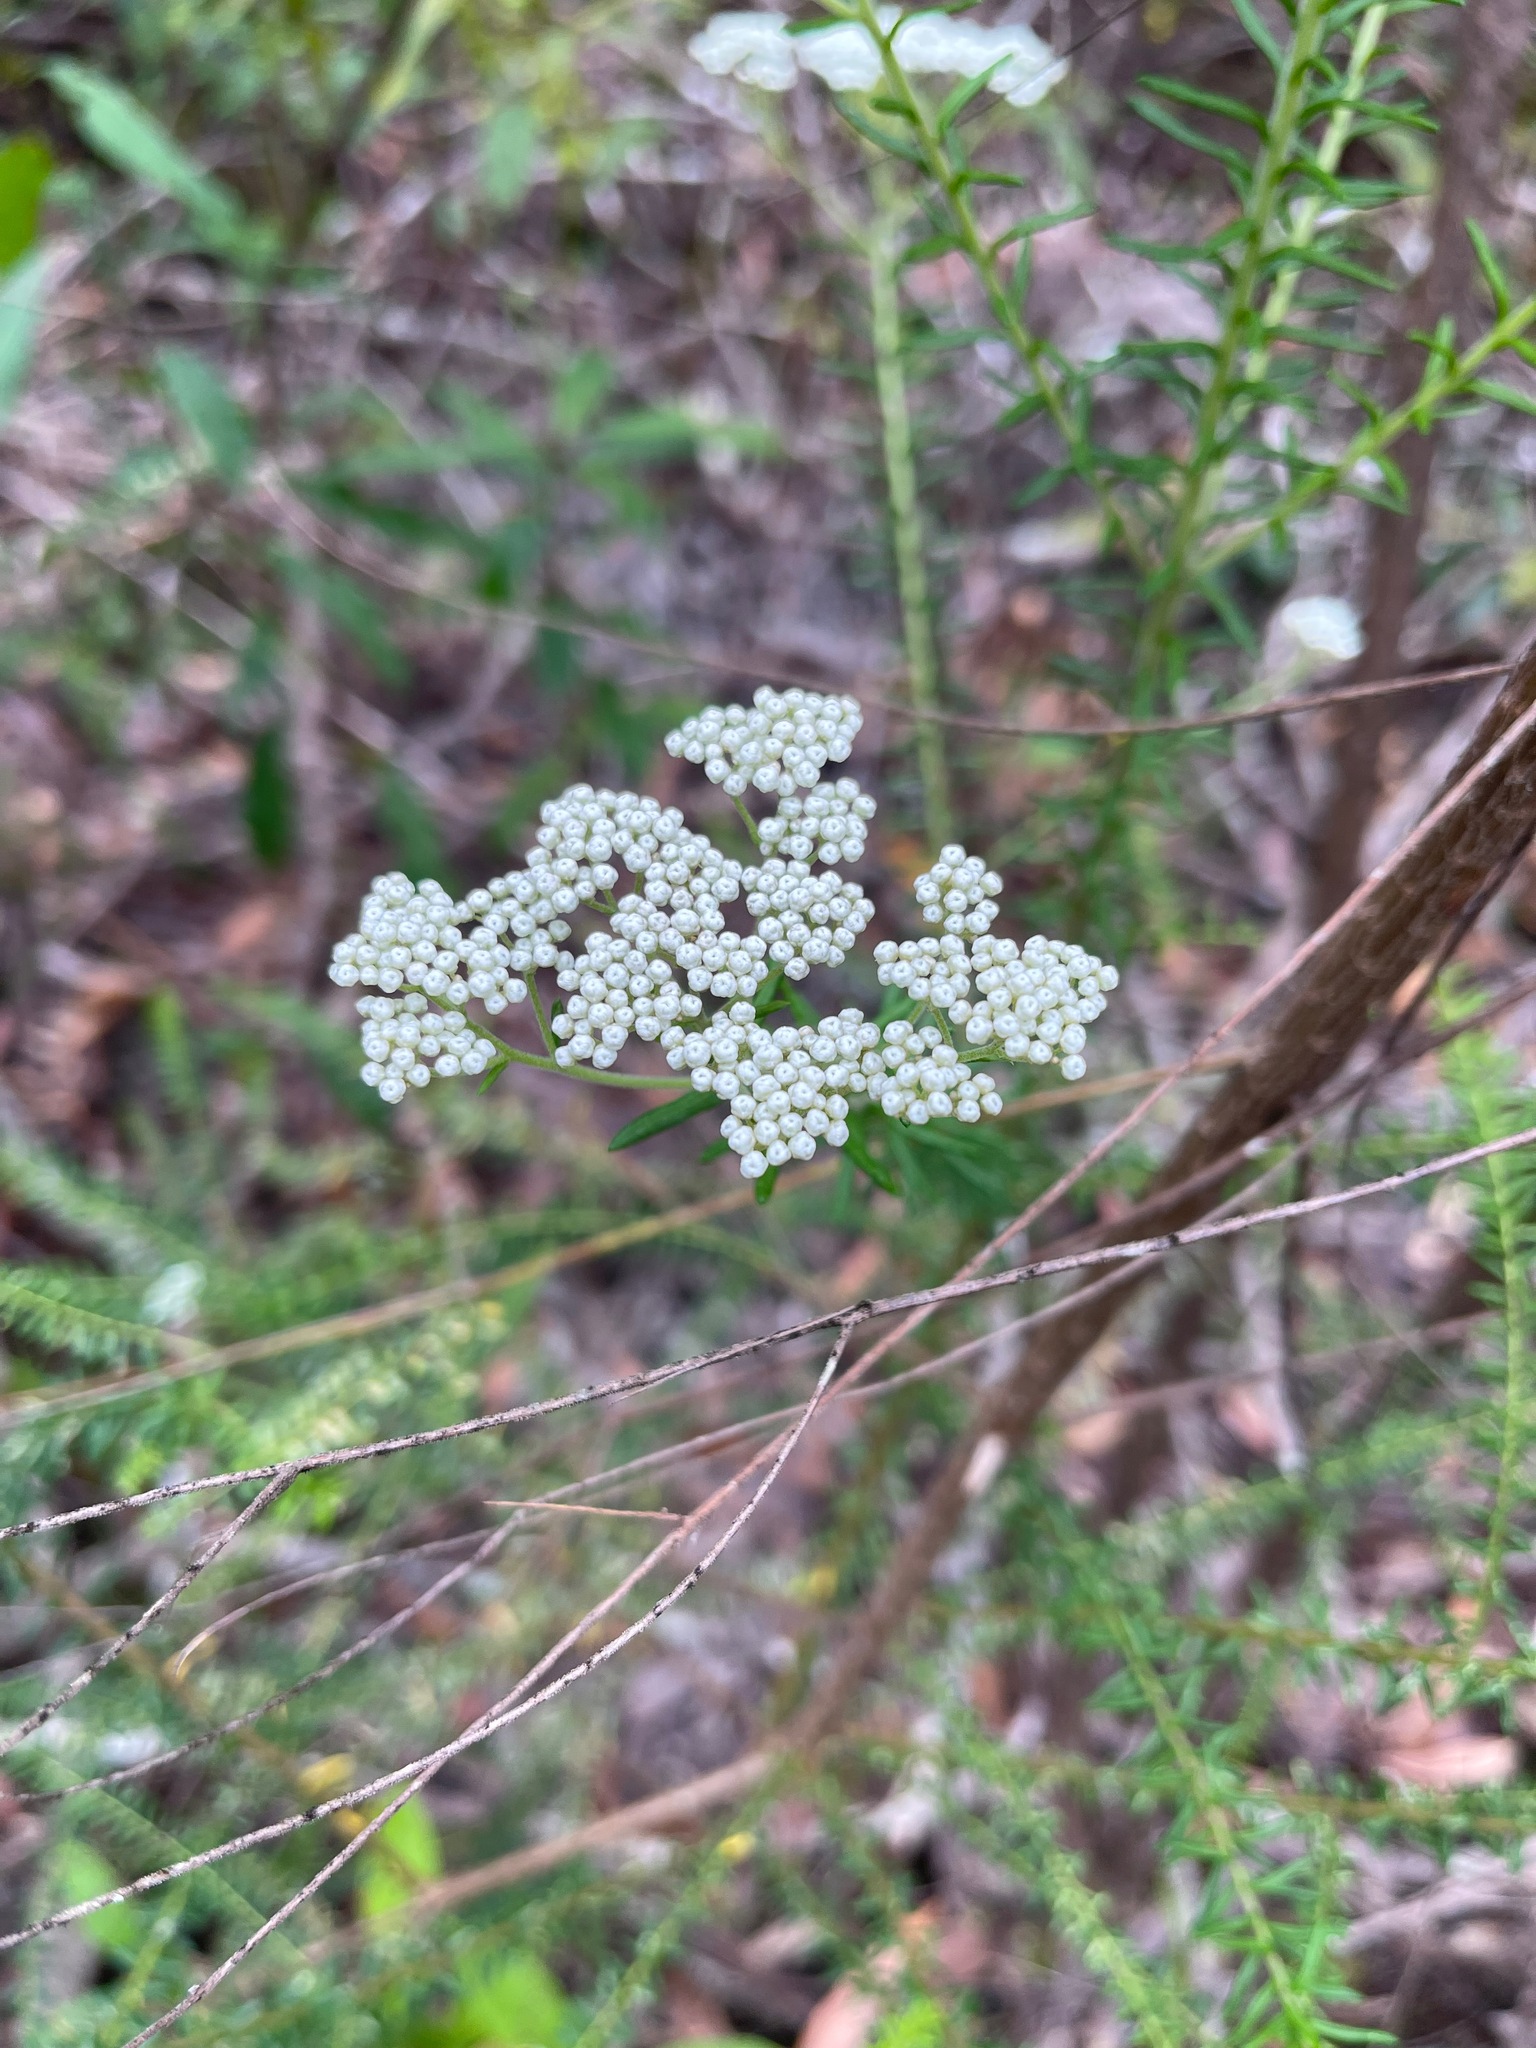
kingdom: Plantae
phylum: Tracheophyta
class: Magnoliopsida
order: Asterales
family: Asteraceae
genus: Ozothamnus
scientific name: Ozothamnus diosmifolius
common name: White-dogwood
